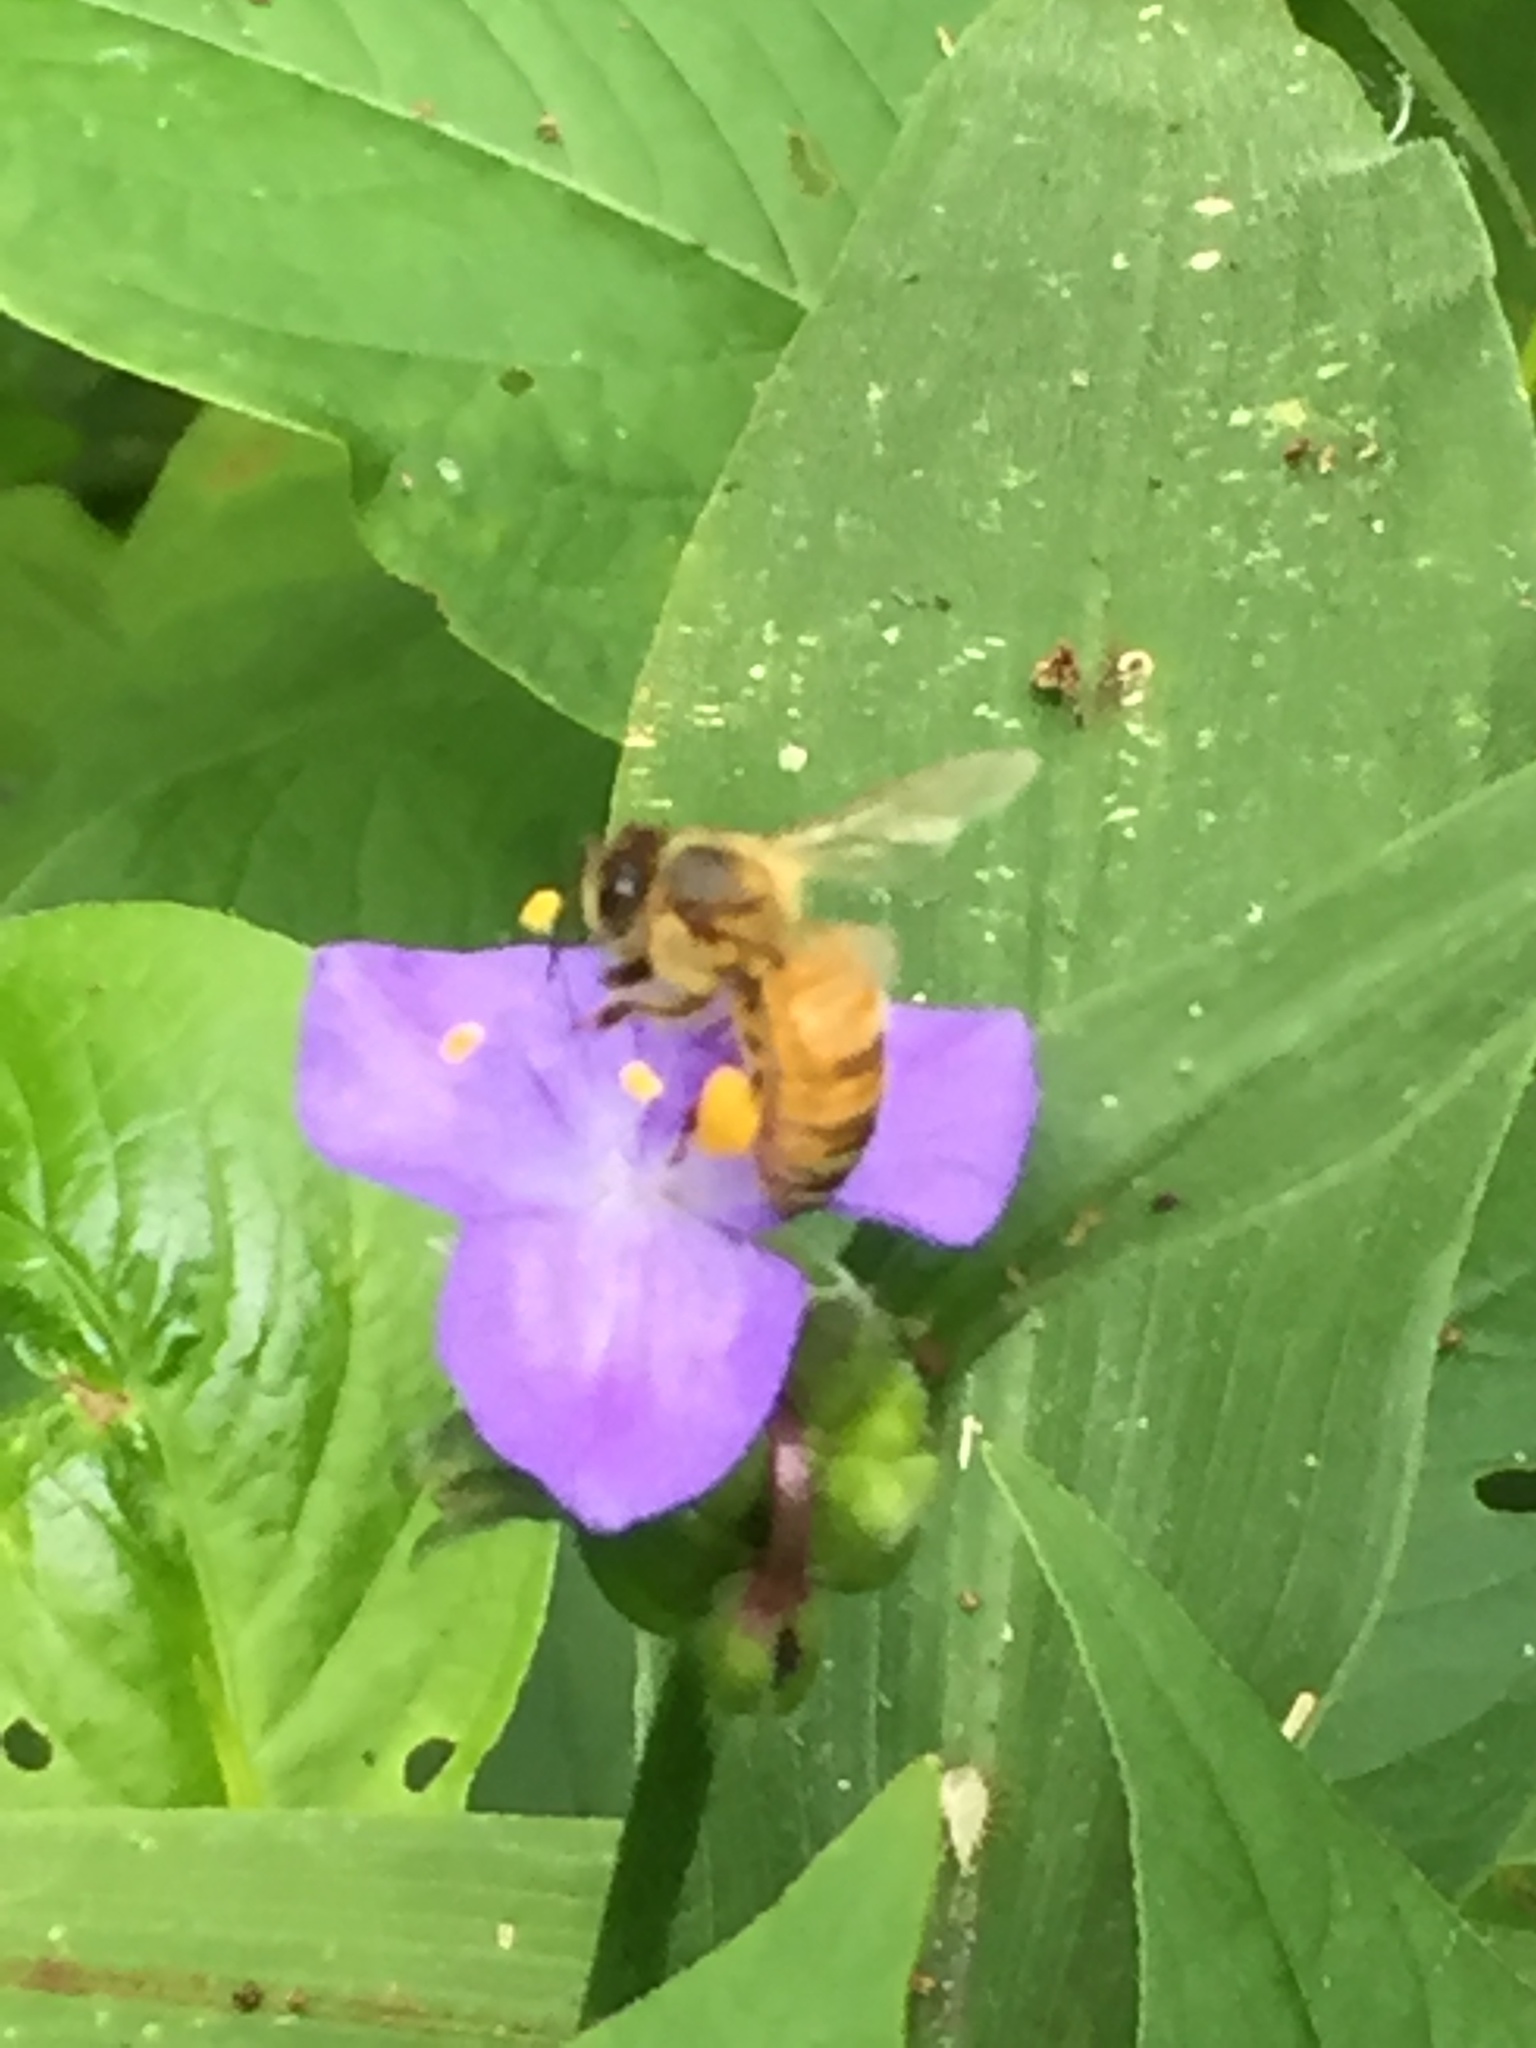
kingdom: Animalia
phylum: Arthropoda
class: Insecta
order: Hymenoptera
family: Apidae
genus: Apis
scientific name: Apis mellifera
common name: Honey bee
